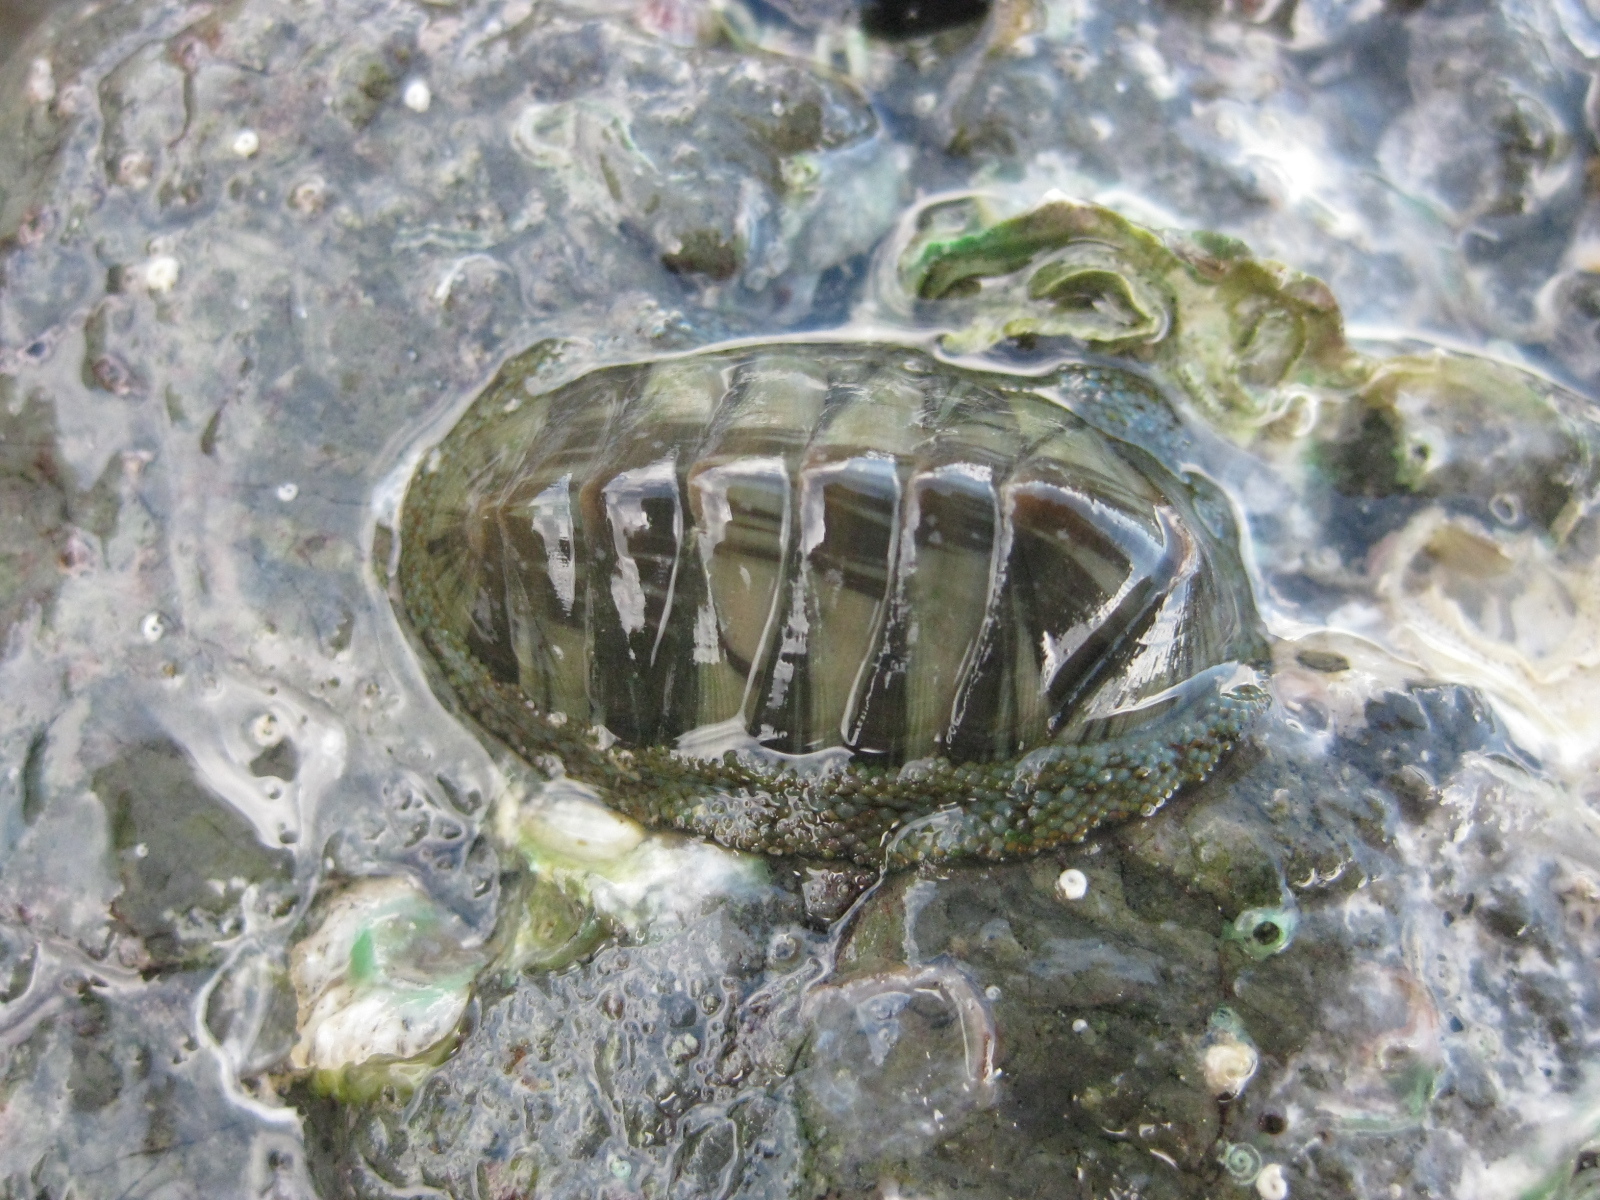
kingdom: Animalia
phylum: Mollusca
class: Polyplacophora
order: Chitonida
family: Chitonidae
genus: Rhyssoplax
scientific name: Rhyssoplax aerea
